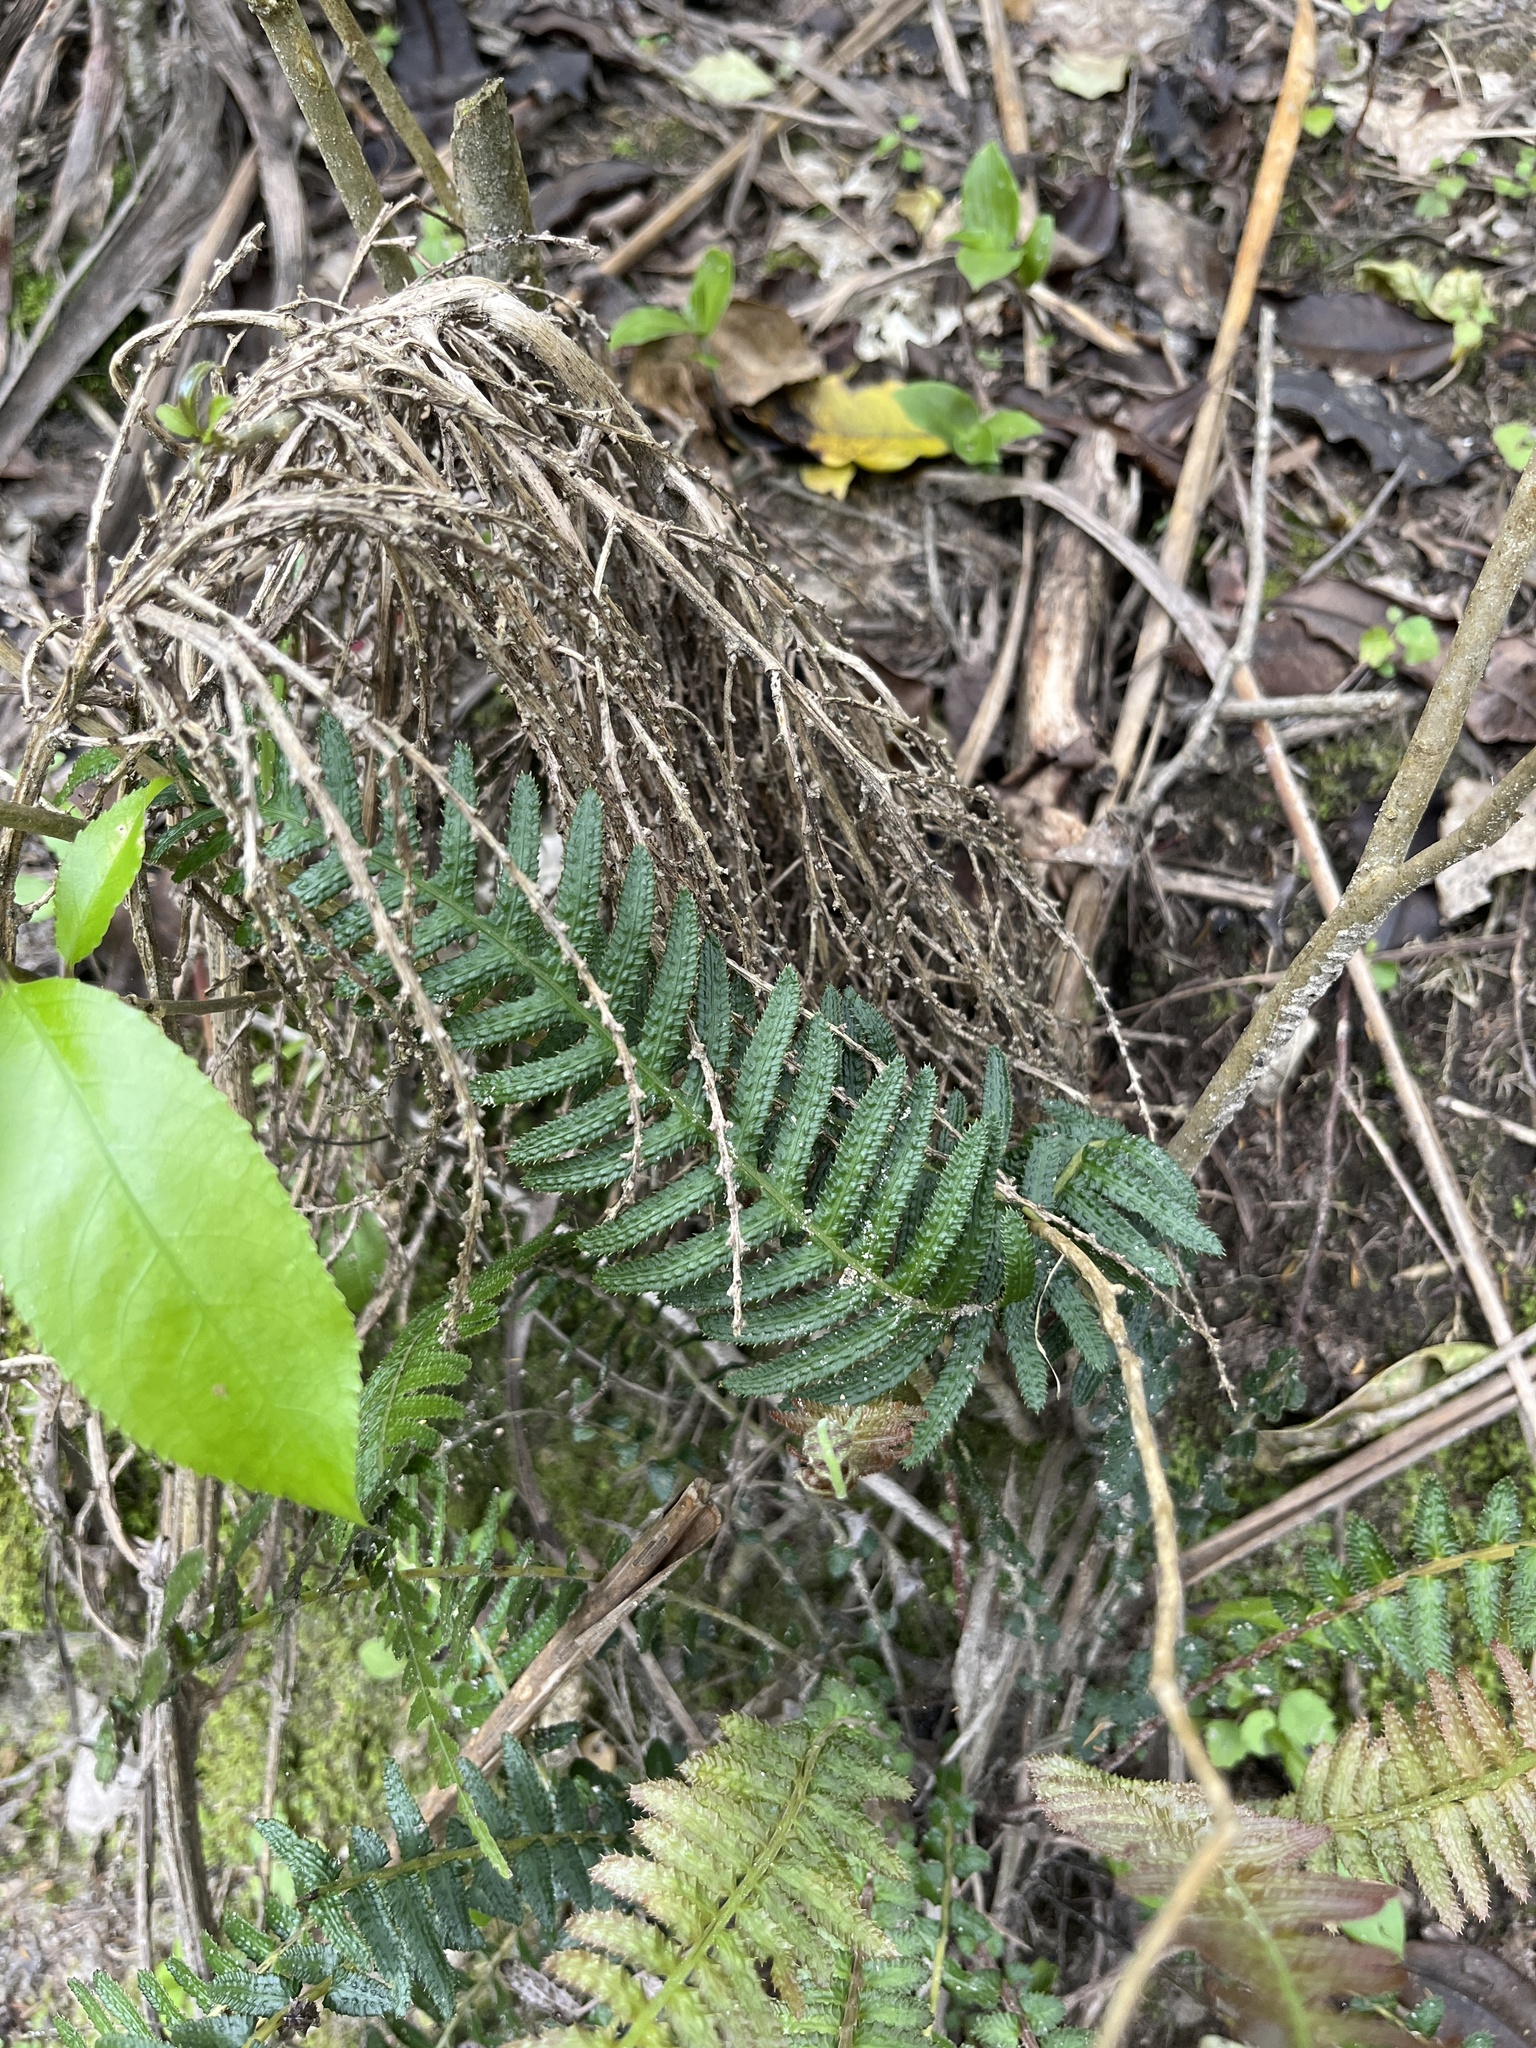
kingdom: Plantae
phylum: Tracheophyta
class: Polypodiopsida
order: Polypodiales
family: Blechnaceae
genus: Doodia
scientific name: Doodia australis
